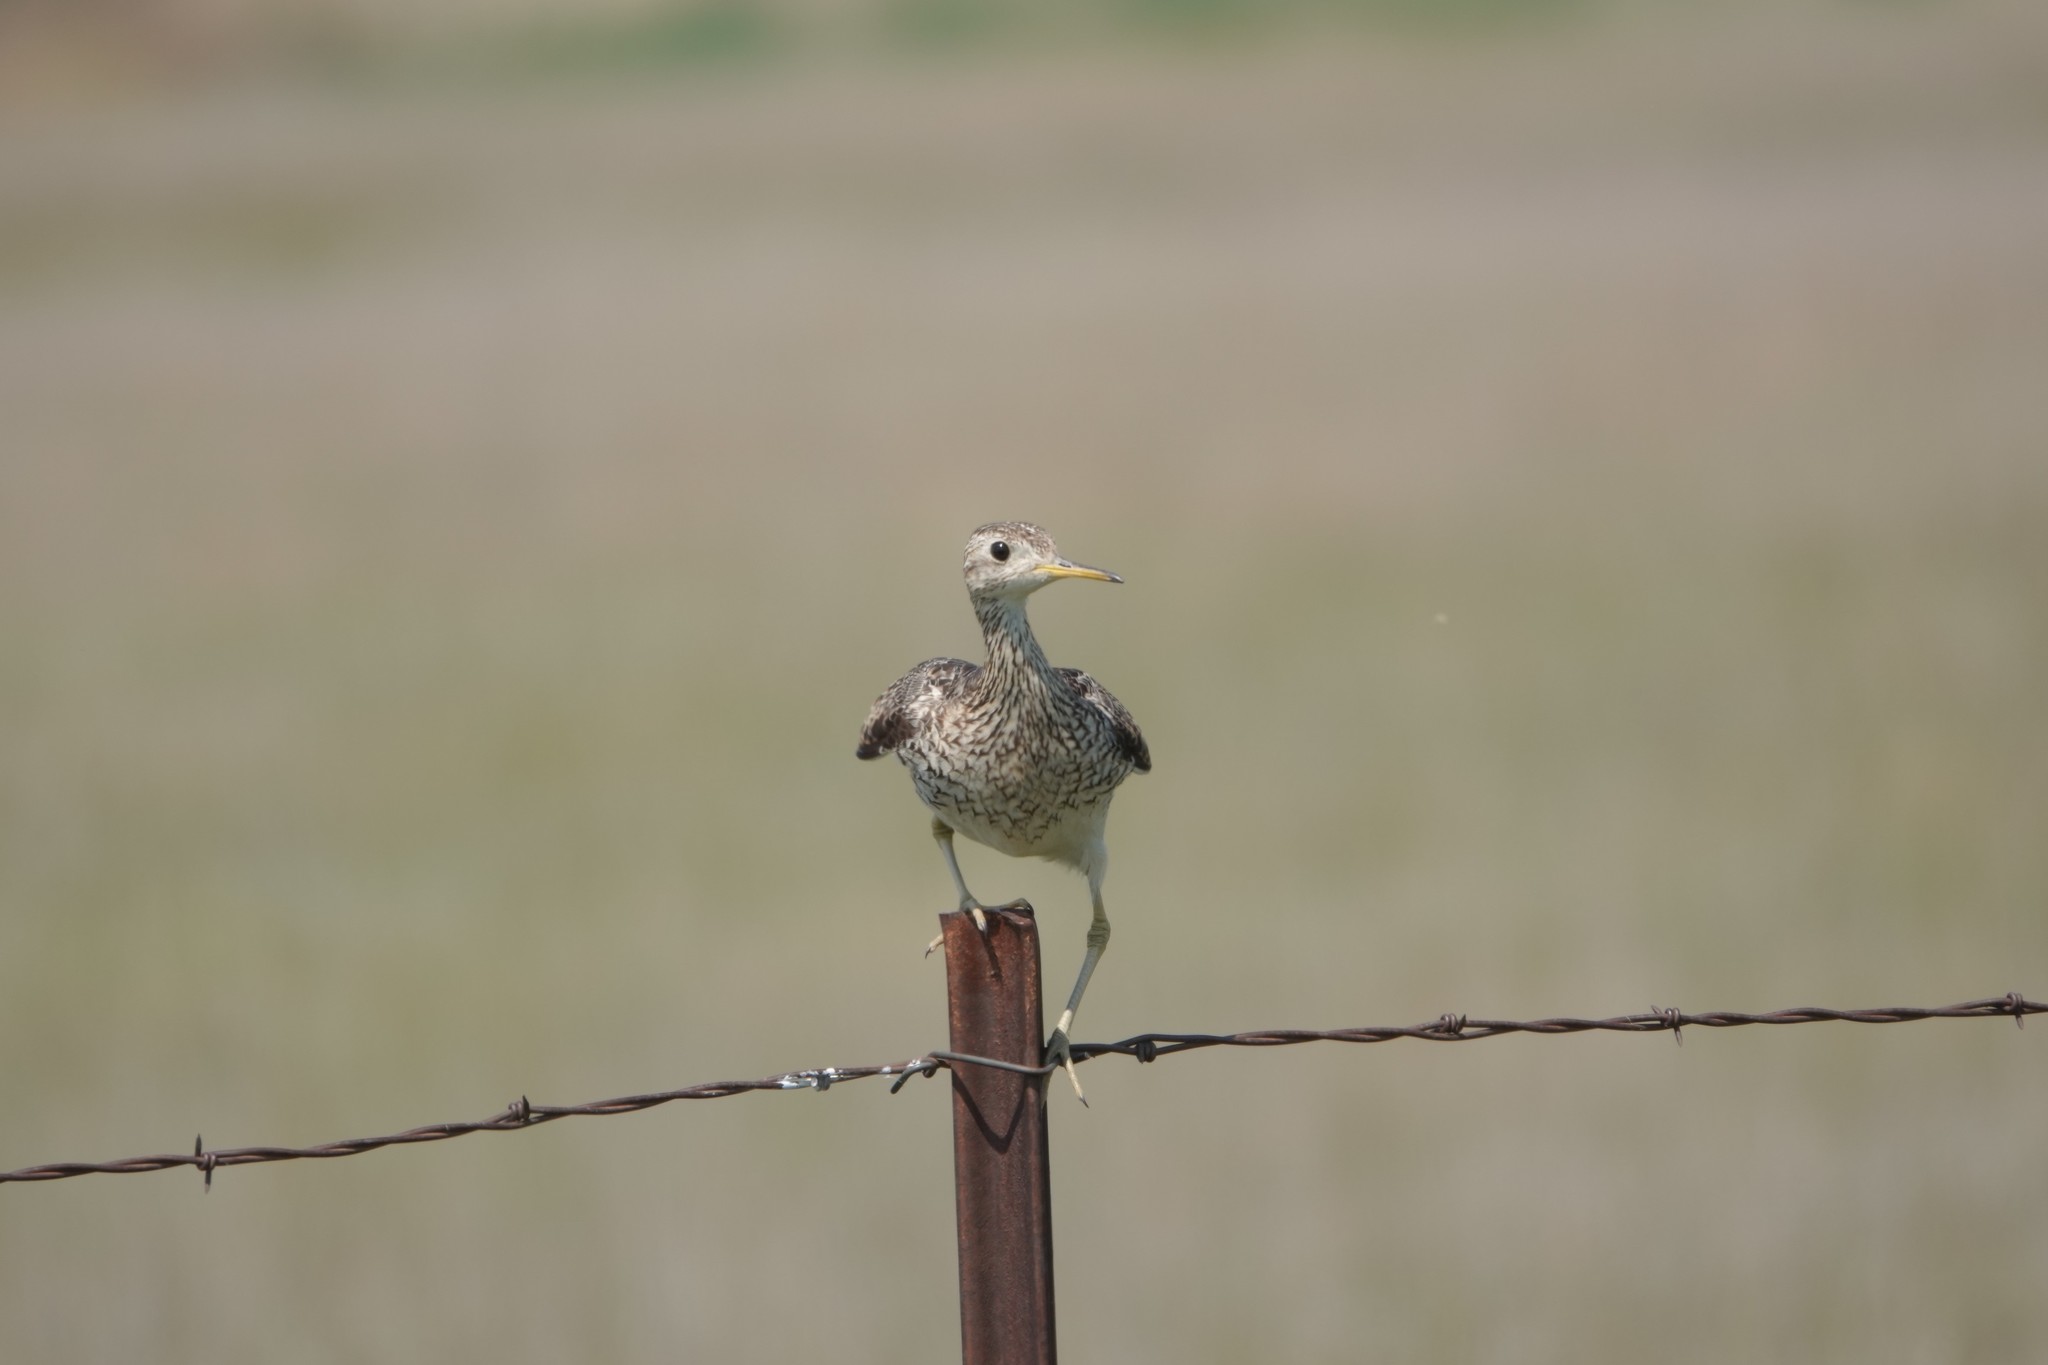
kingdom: Animalia
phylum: Chordata
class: Aves
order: Charadriiformes
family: Scolopacidae
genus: Bartramia
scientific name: Bartramia longicauda
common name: Upland sandpiper
